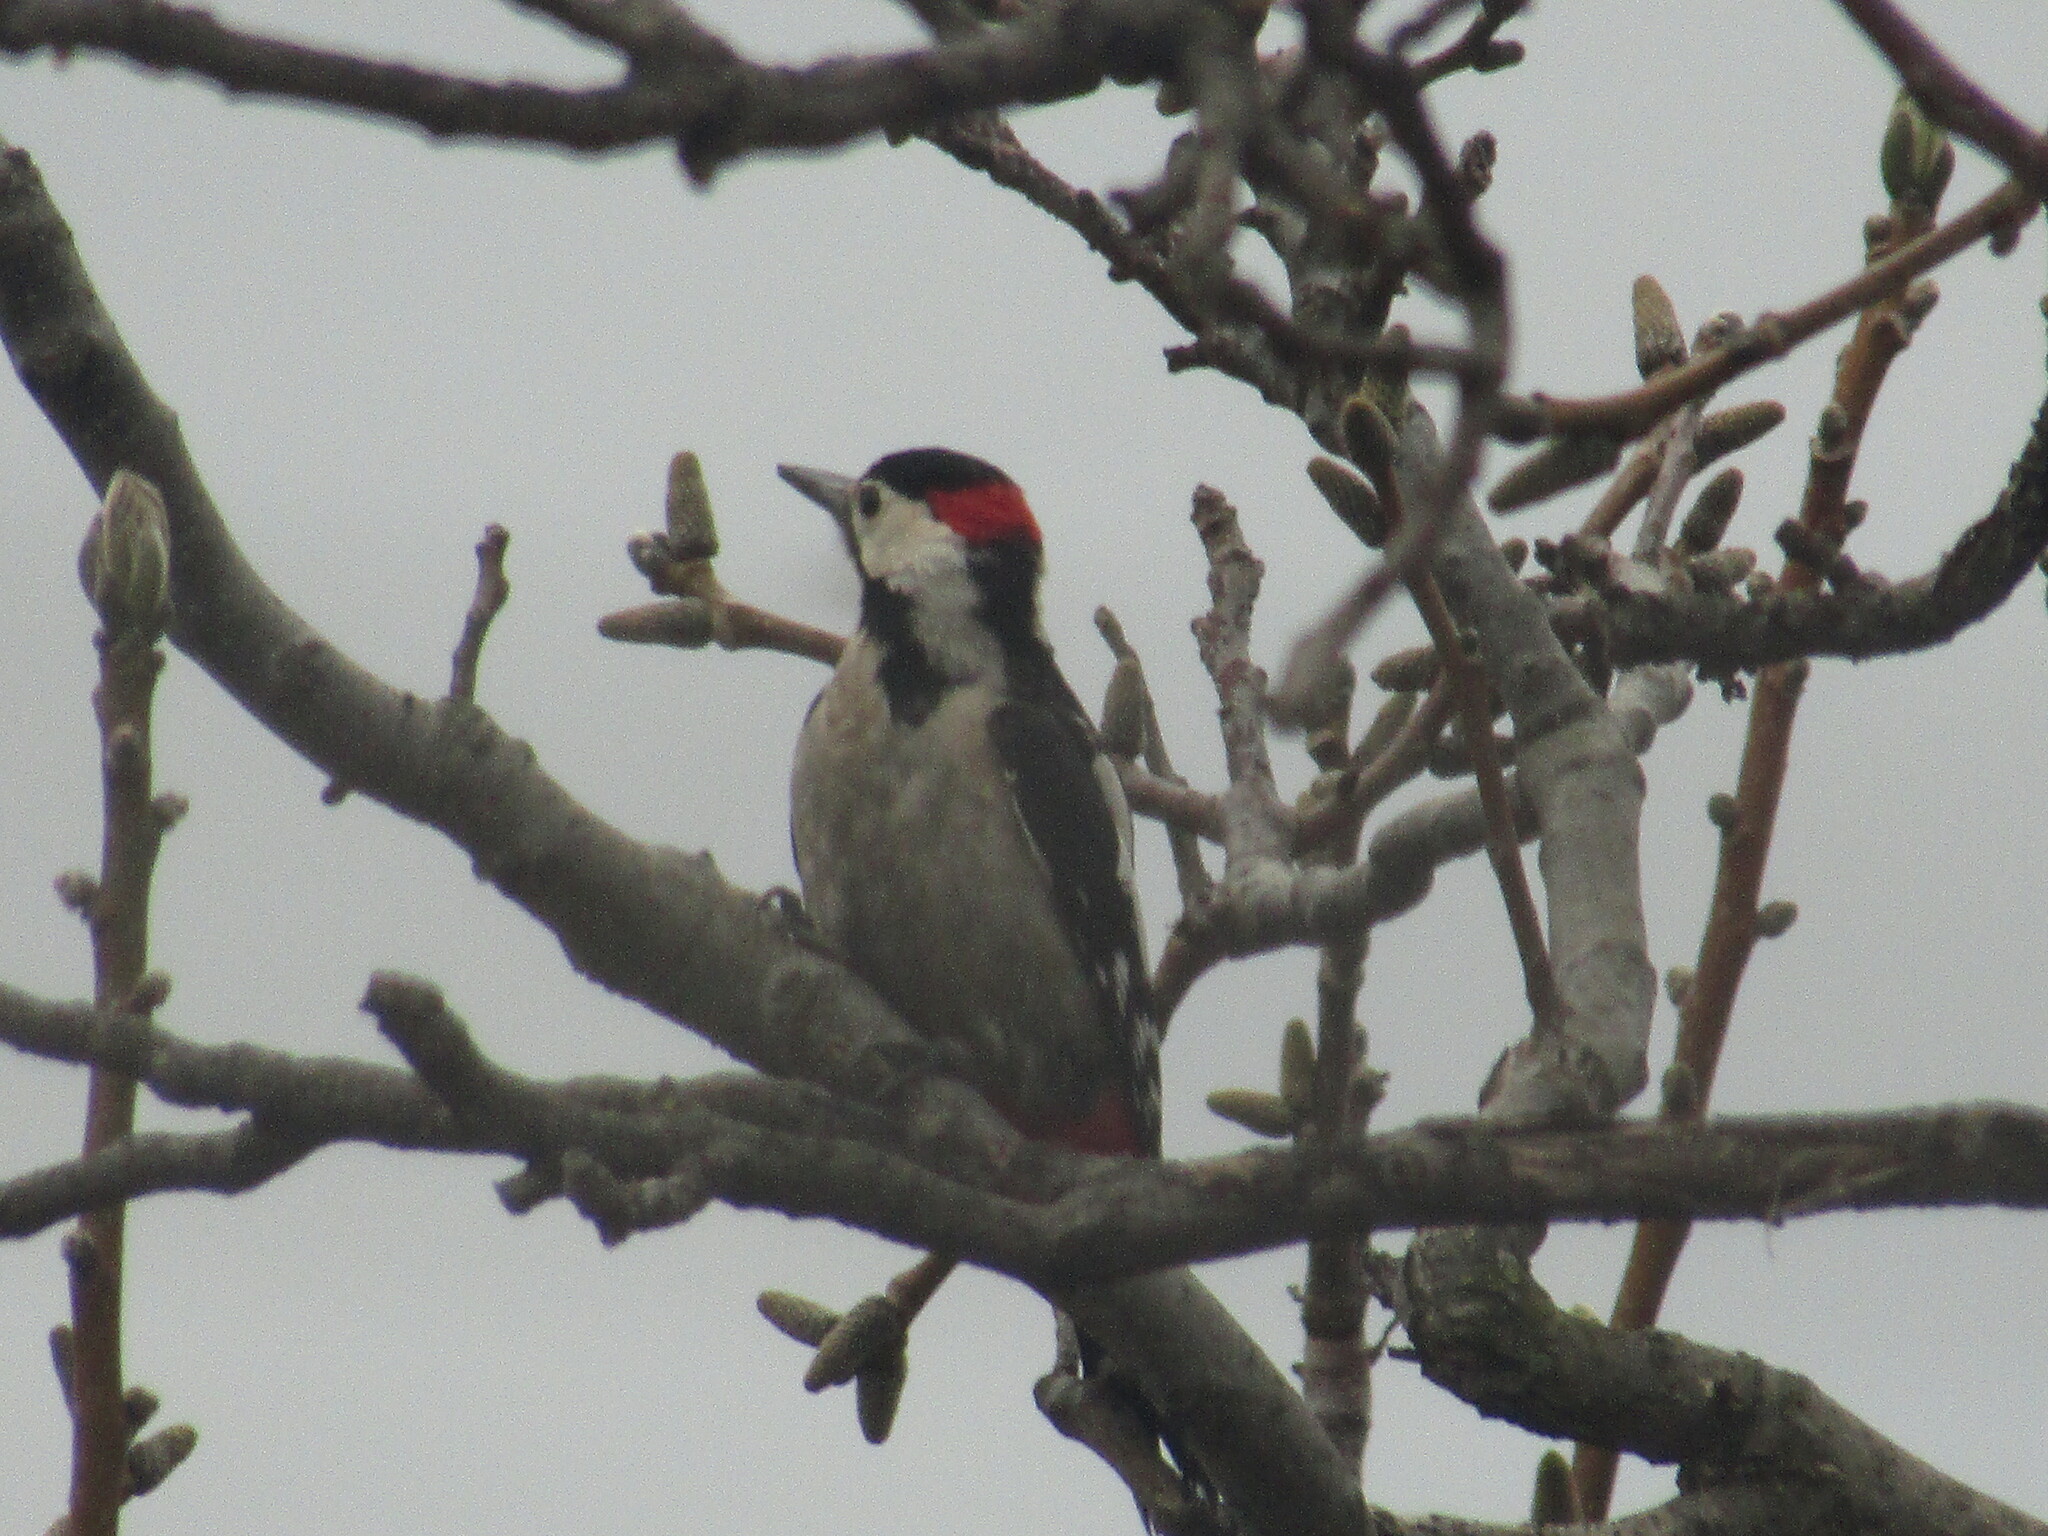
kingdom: Animalia
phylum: Chordata
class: Aves
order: Piciformes
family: Picidae
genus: Dendrocopos
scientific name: Dendrocopos syriacus
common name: Syrian woodpecker
